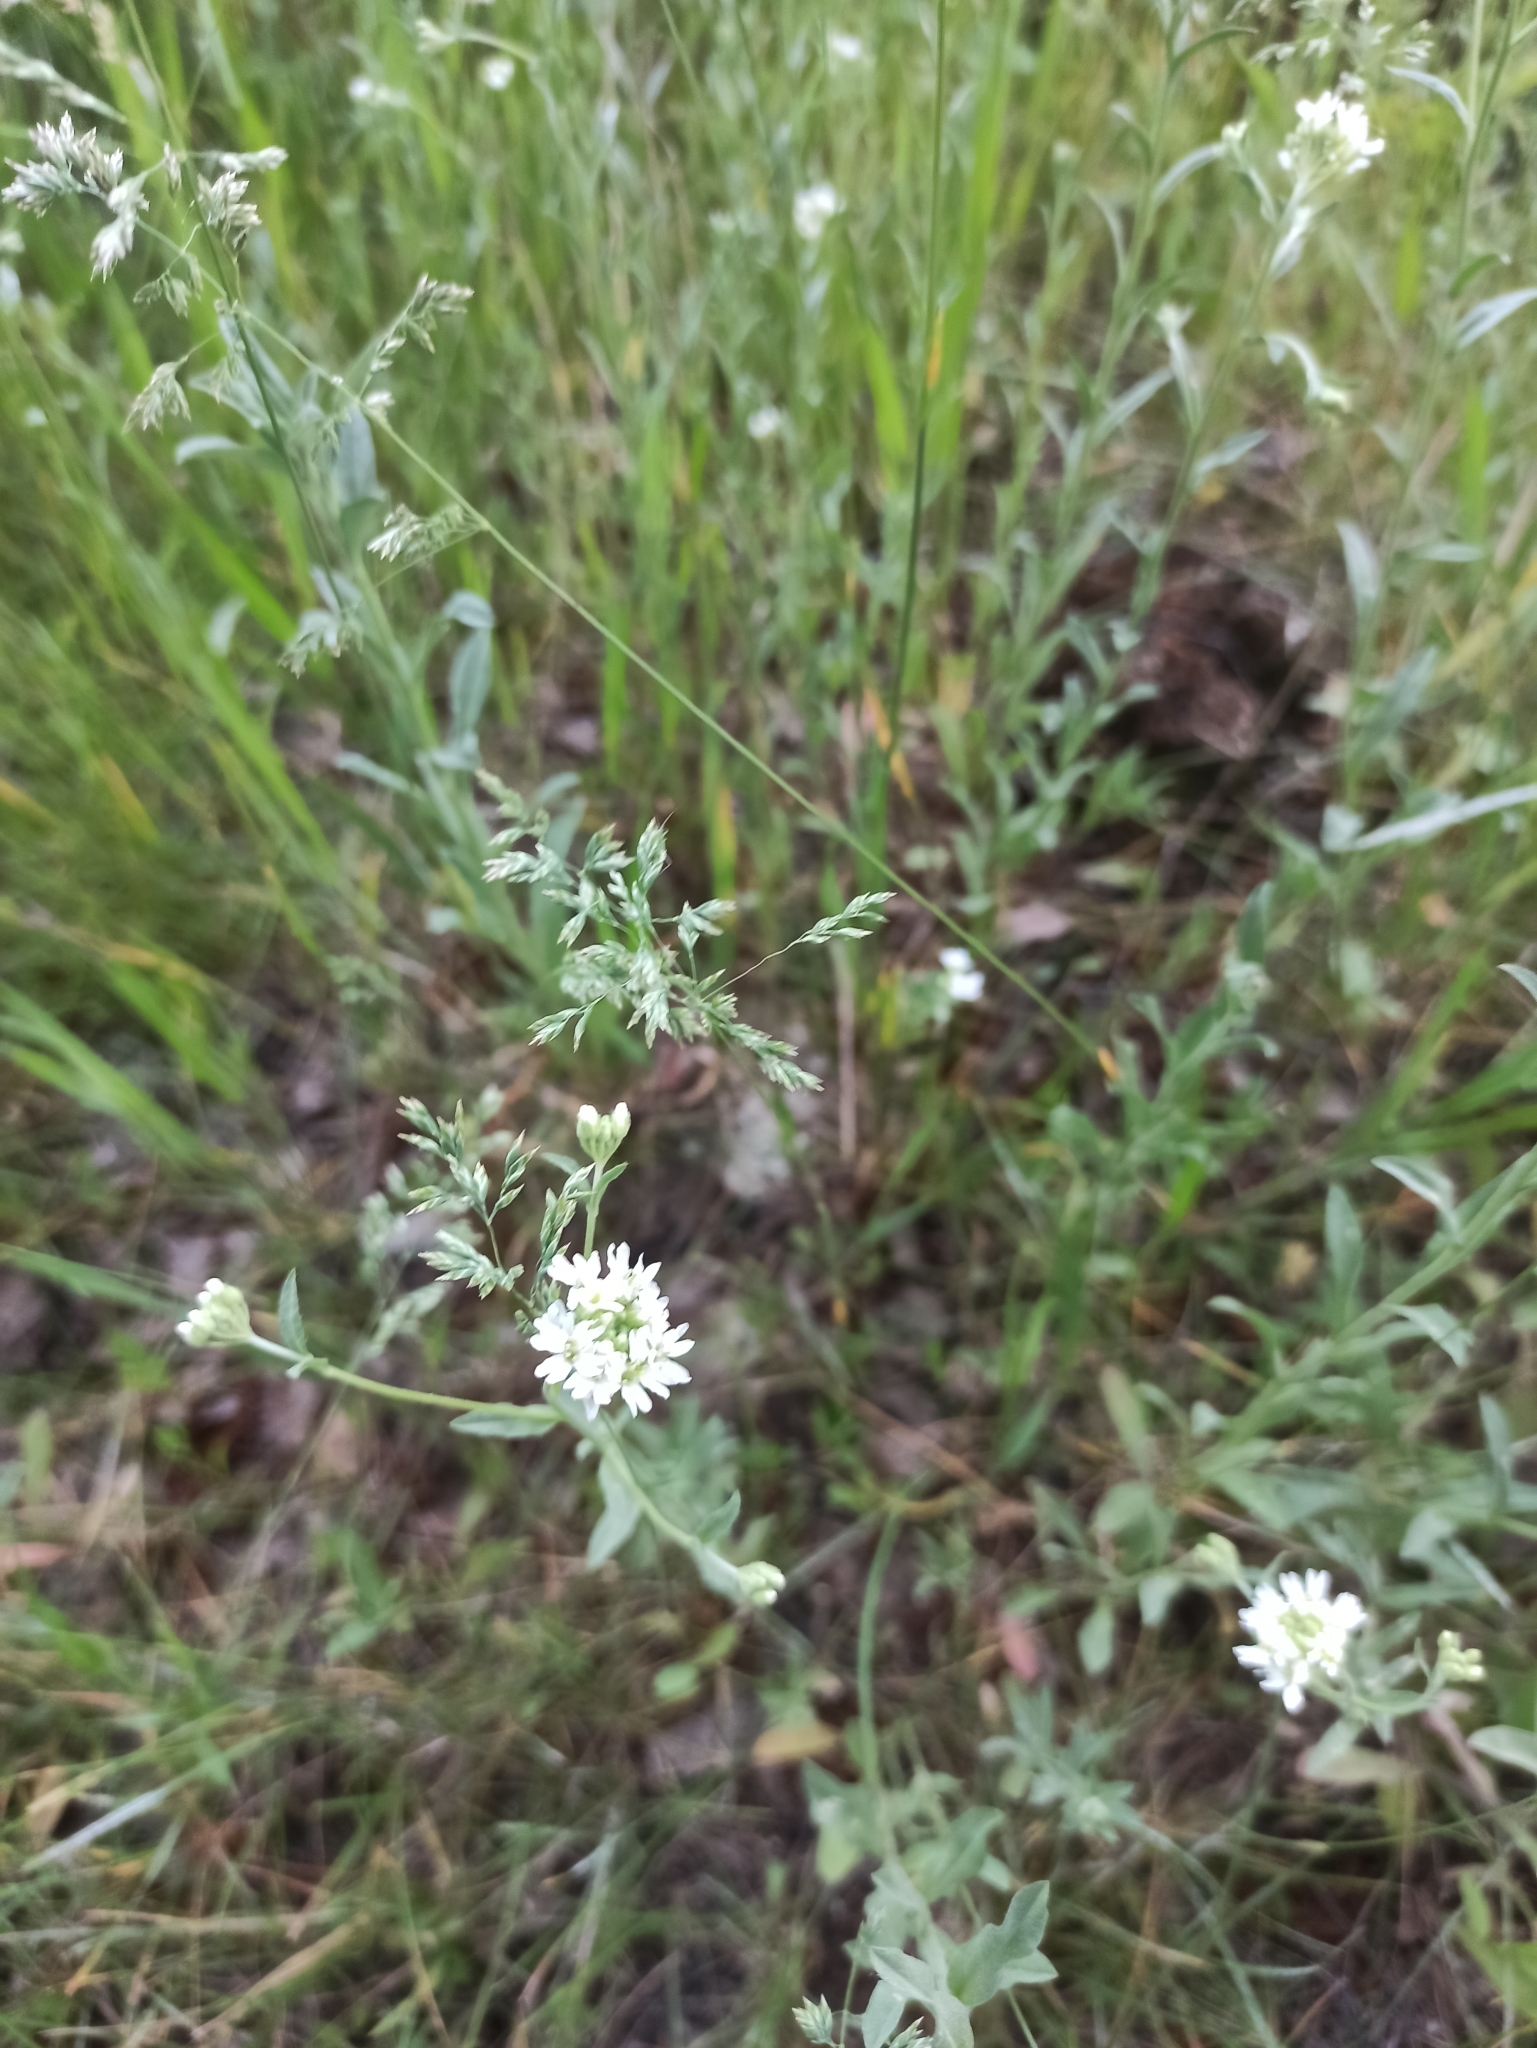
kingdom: Plantae
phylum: Tracheophyta
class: Magnoliopsida
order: Brassicales
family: Brassicaceae
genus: Berteroa
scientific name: Berteroa incana
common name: Hoary alison
